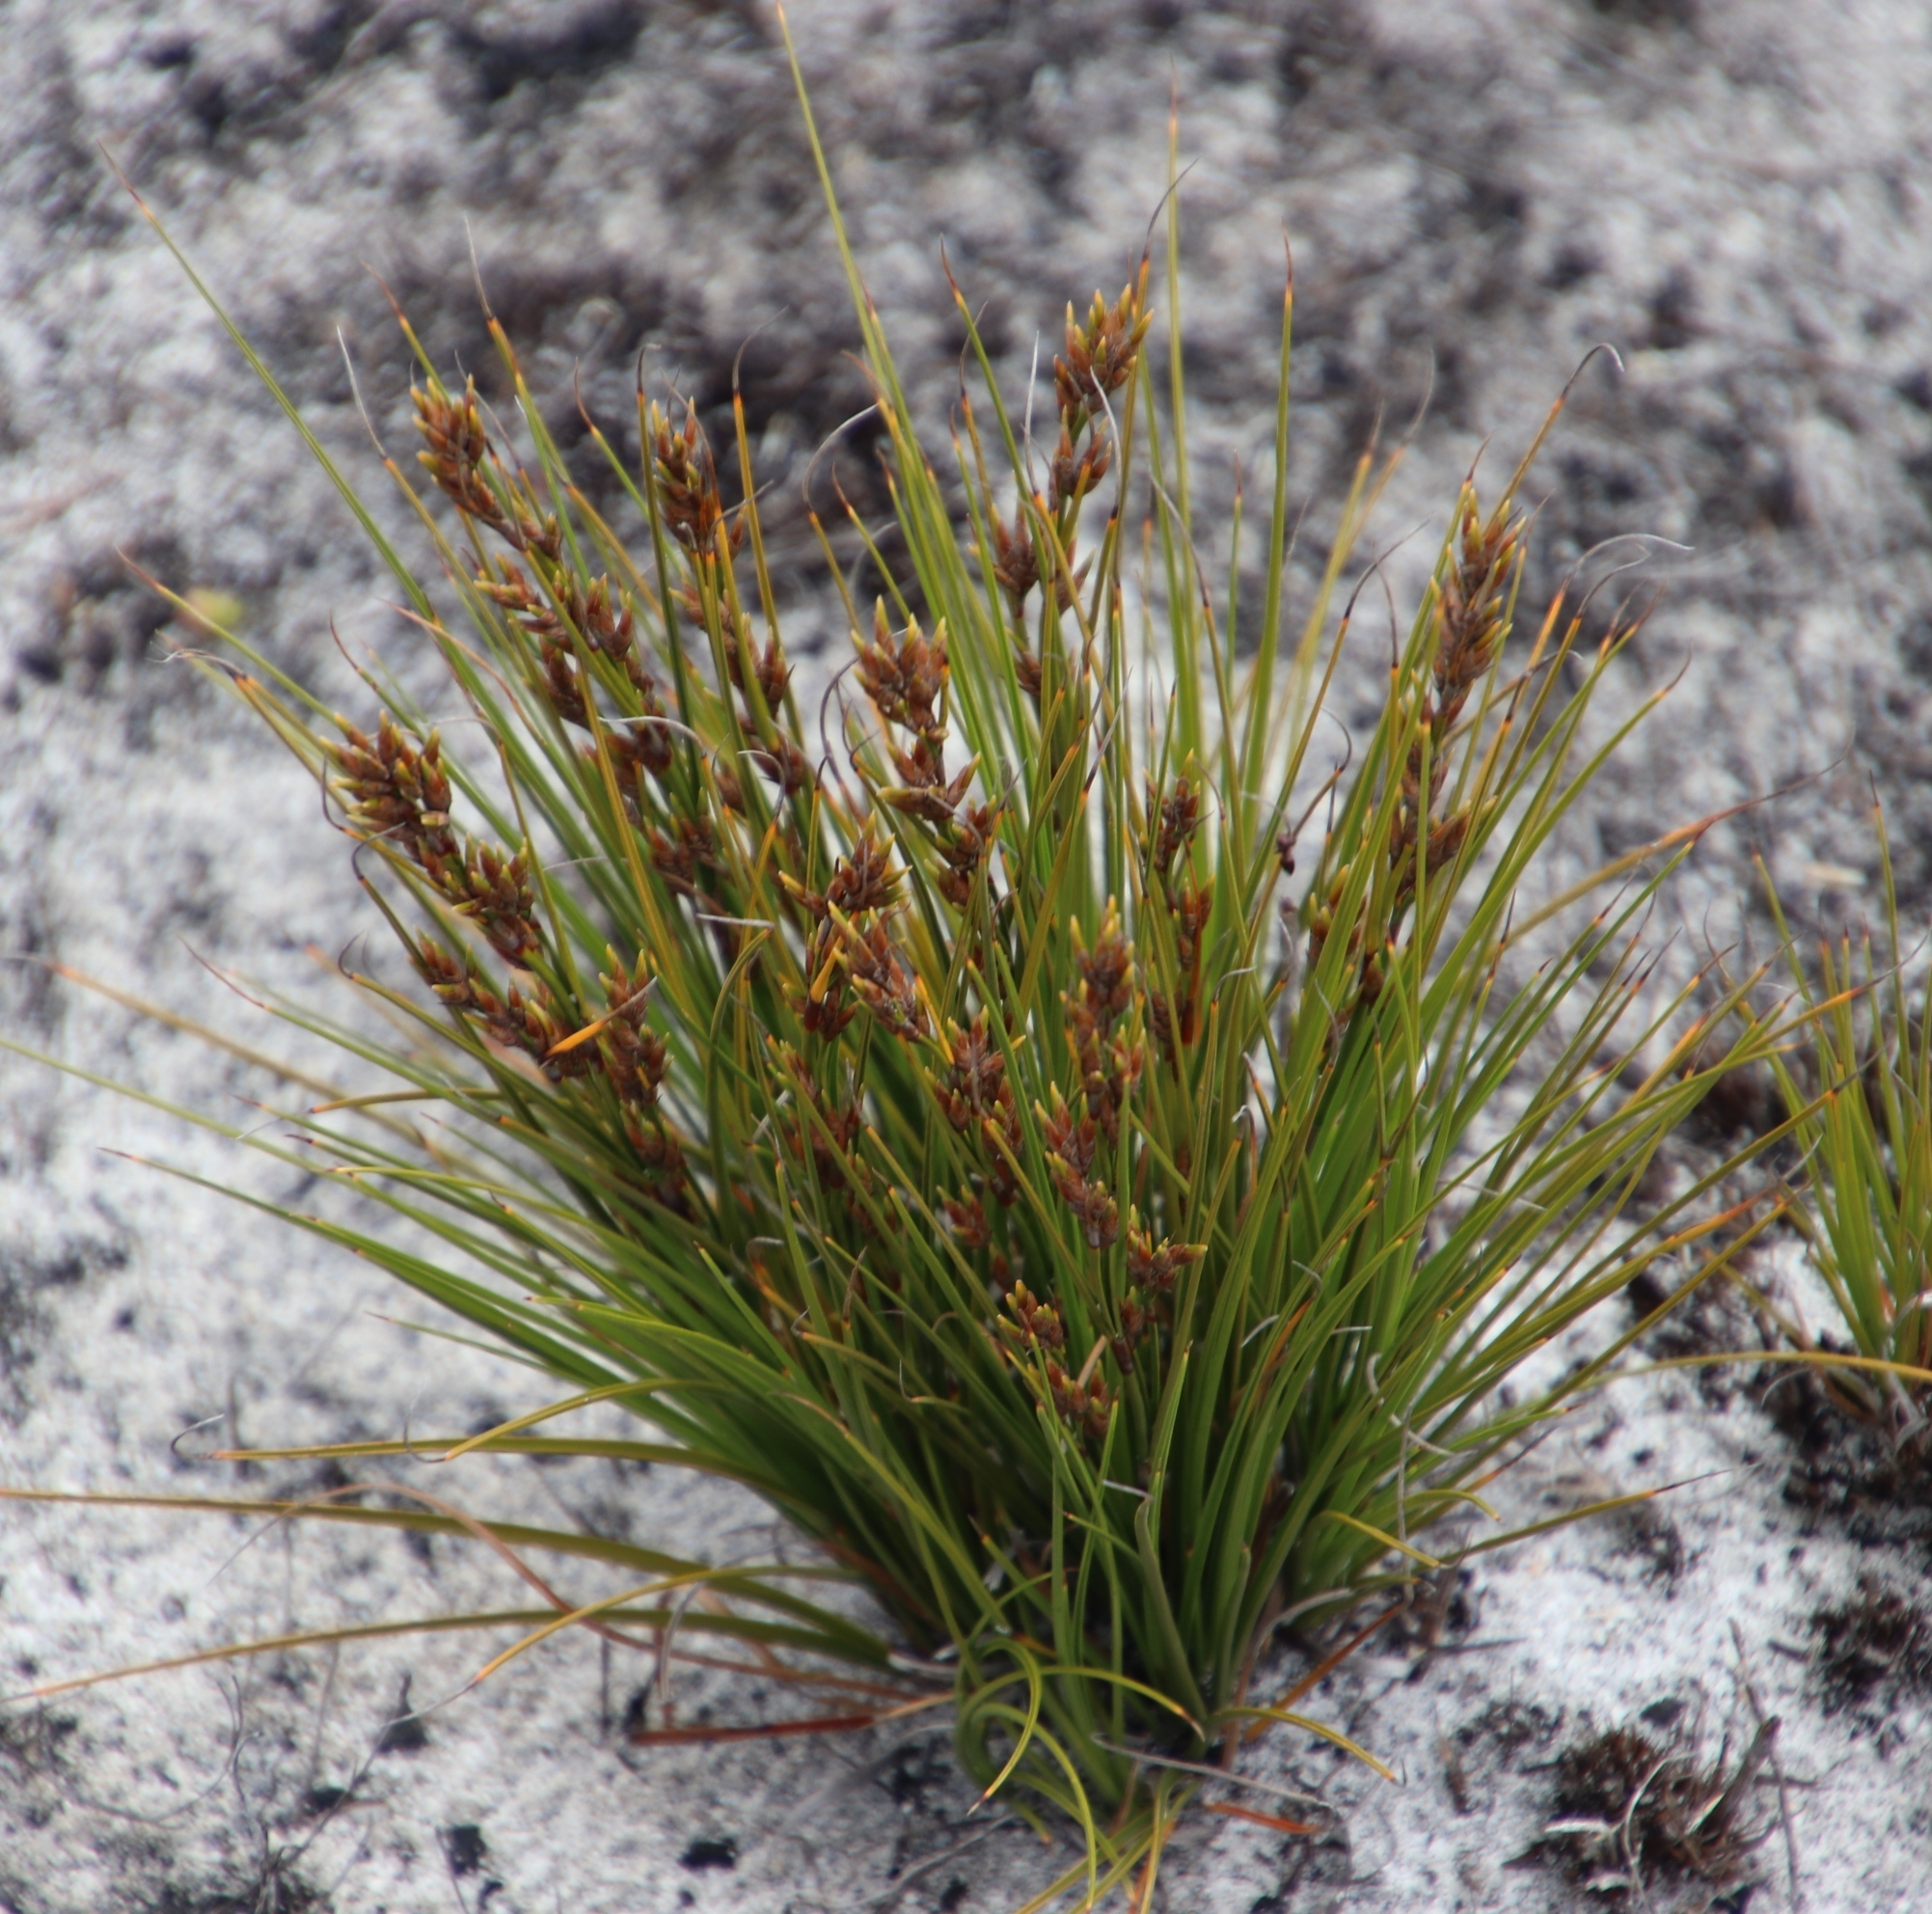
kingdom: Plantae
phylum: Tracheophyta
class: Liliopsida
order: Poales
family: Cyperaceae
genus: Tetraria
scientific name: Tetraria microstachys
